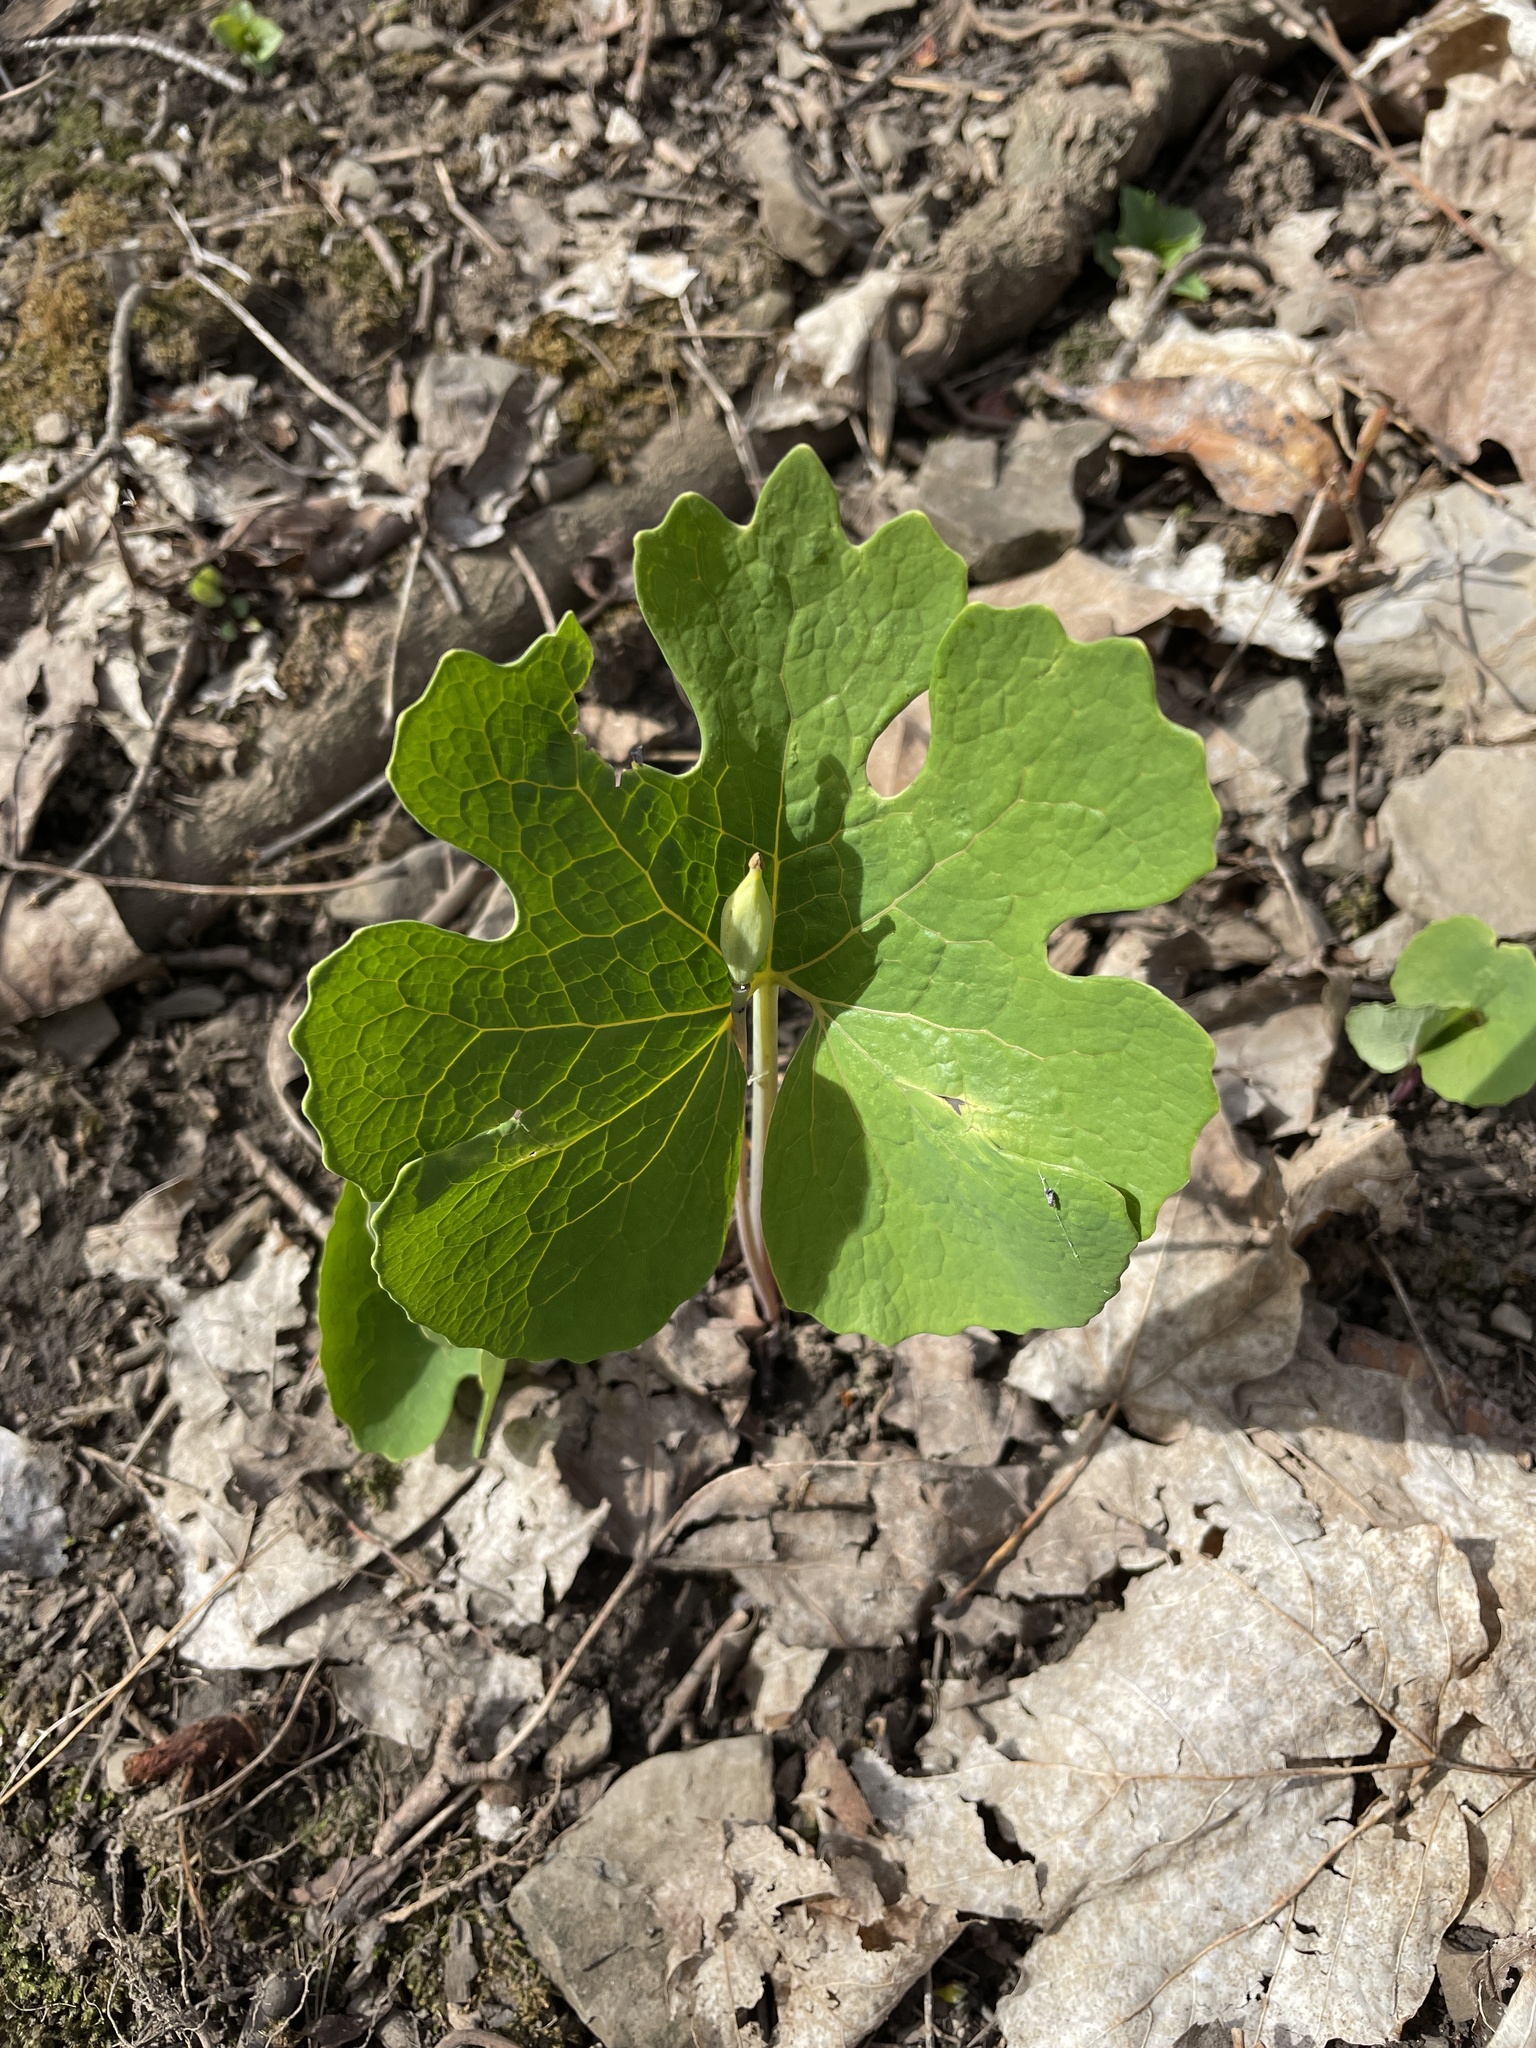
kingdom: Plantae
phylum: Tracheophyta
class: Magnoliopsida
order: Ranunculales
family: Papaveraceae
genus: Sanguinaria
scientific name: Sanguinaria canadensis
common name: Bloodroot
